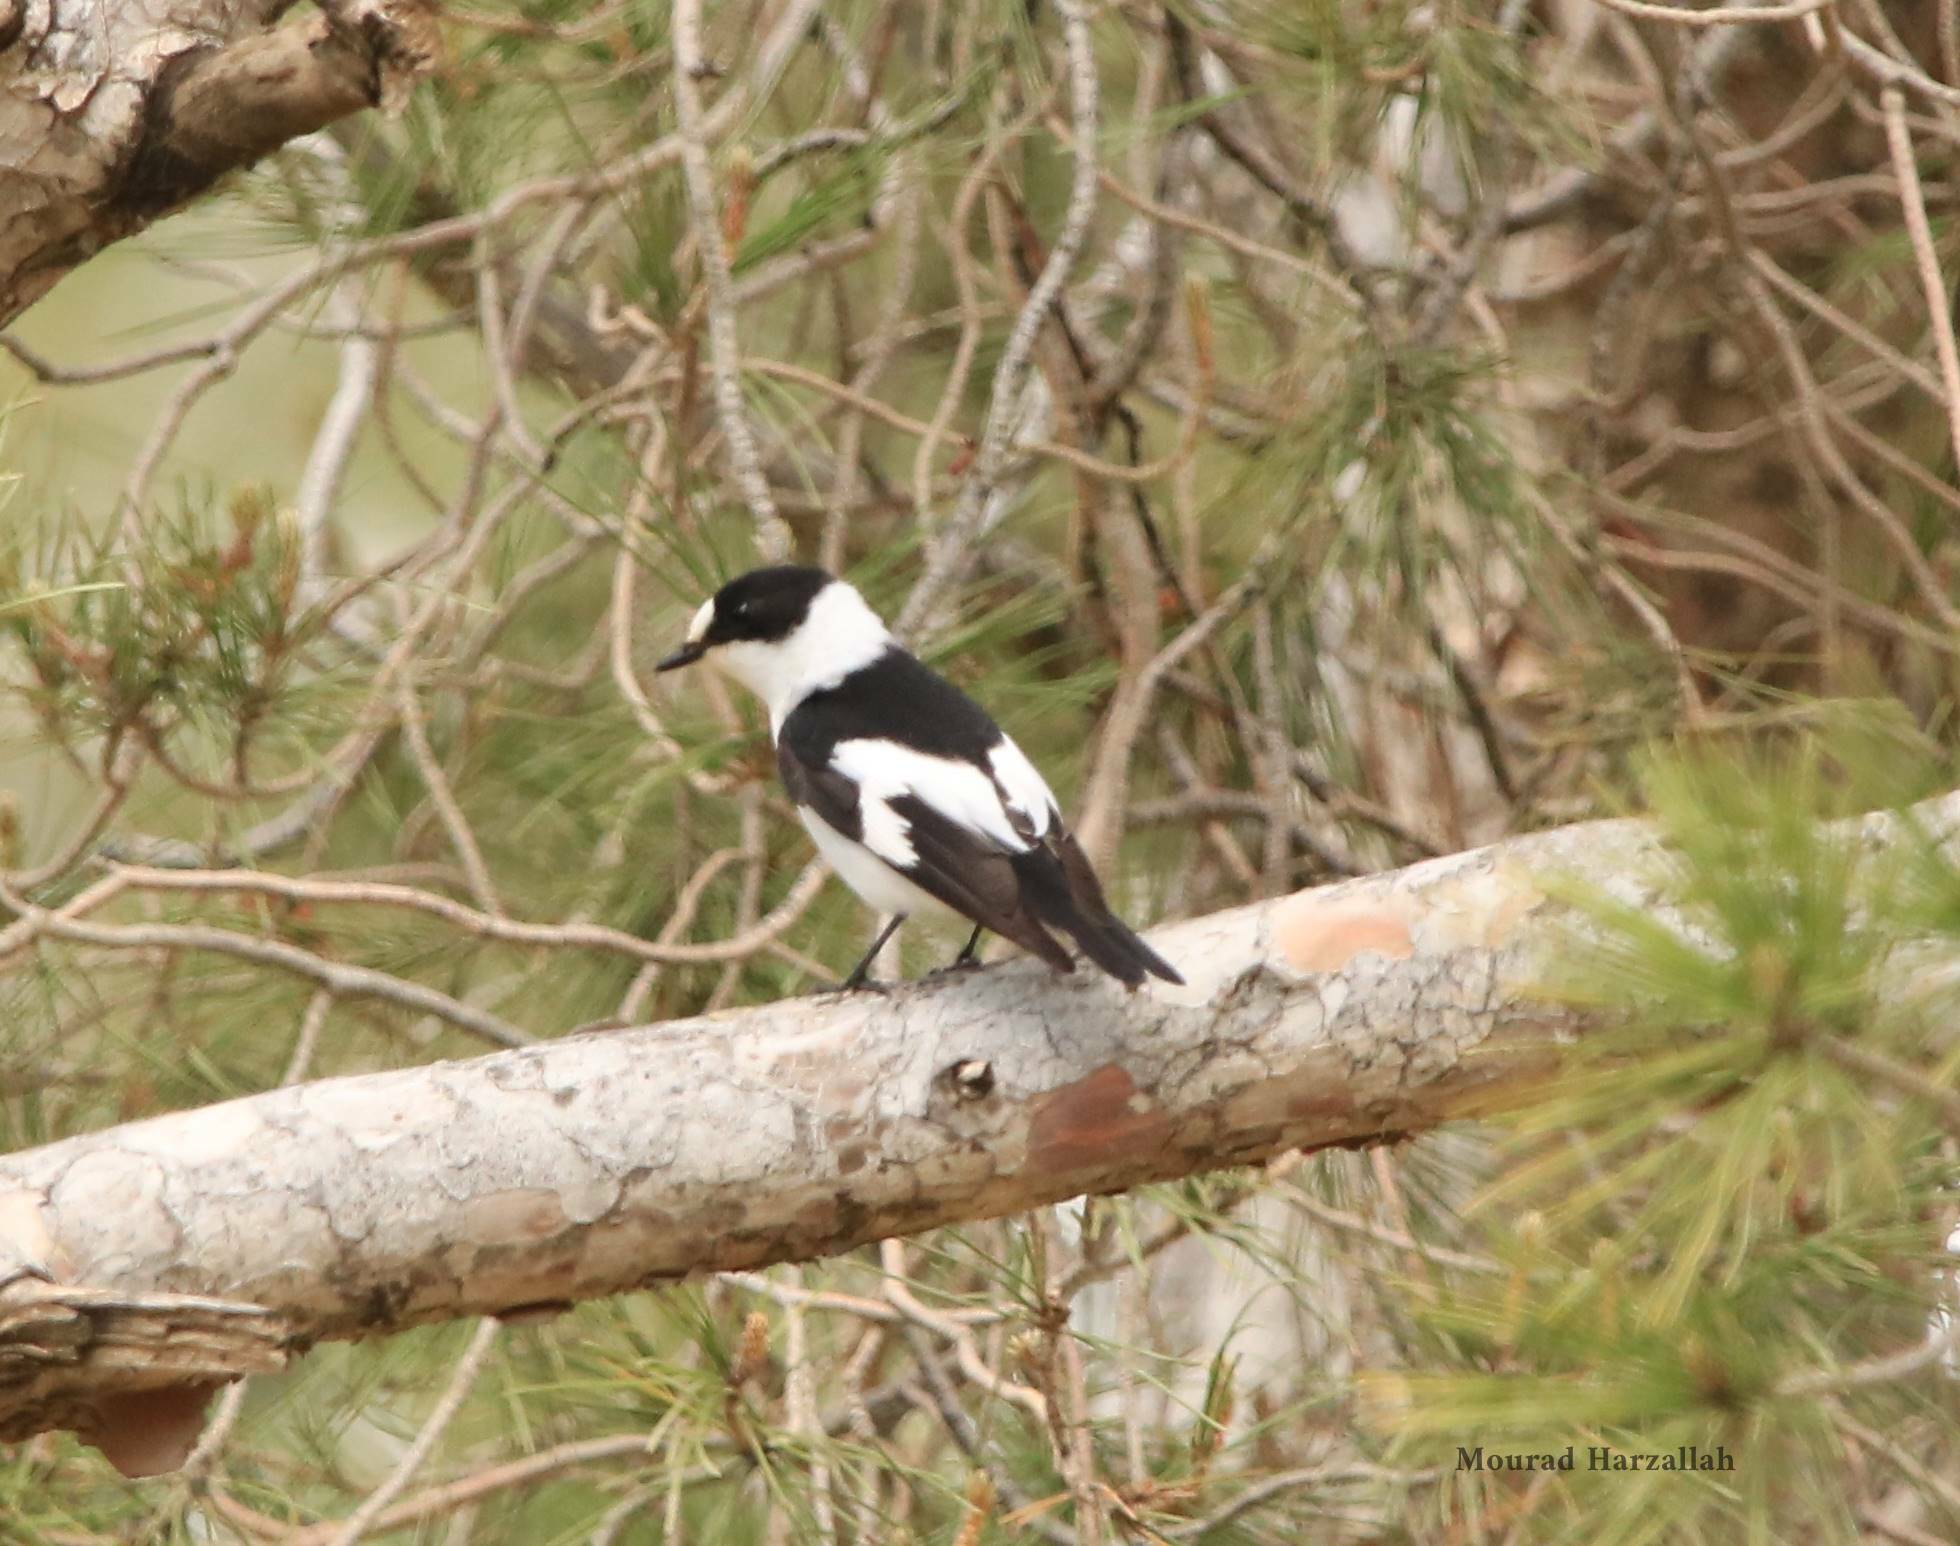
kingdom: Animalia
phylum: Chordata
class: Aves
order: Passeriformes
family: Muscicapidae
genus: Ficedula
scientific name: Ficedula albicollis
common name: Collared flycatcher
